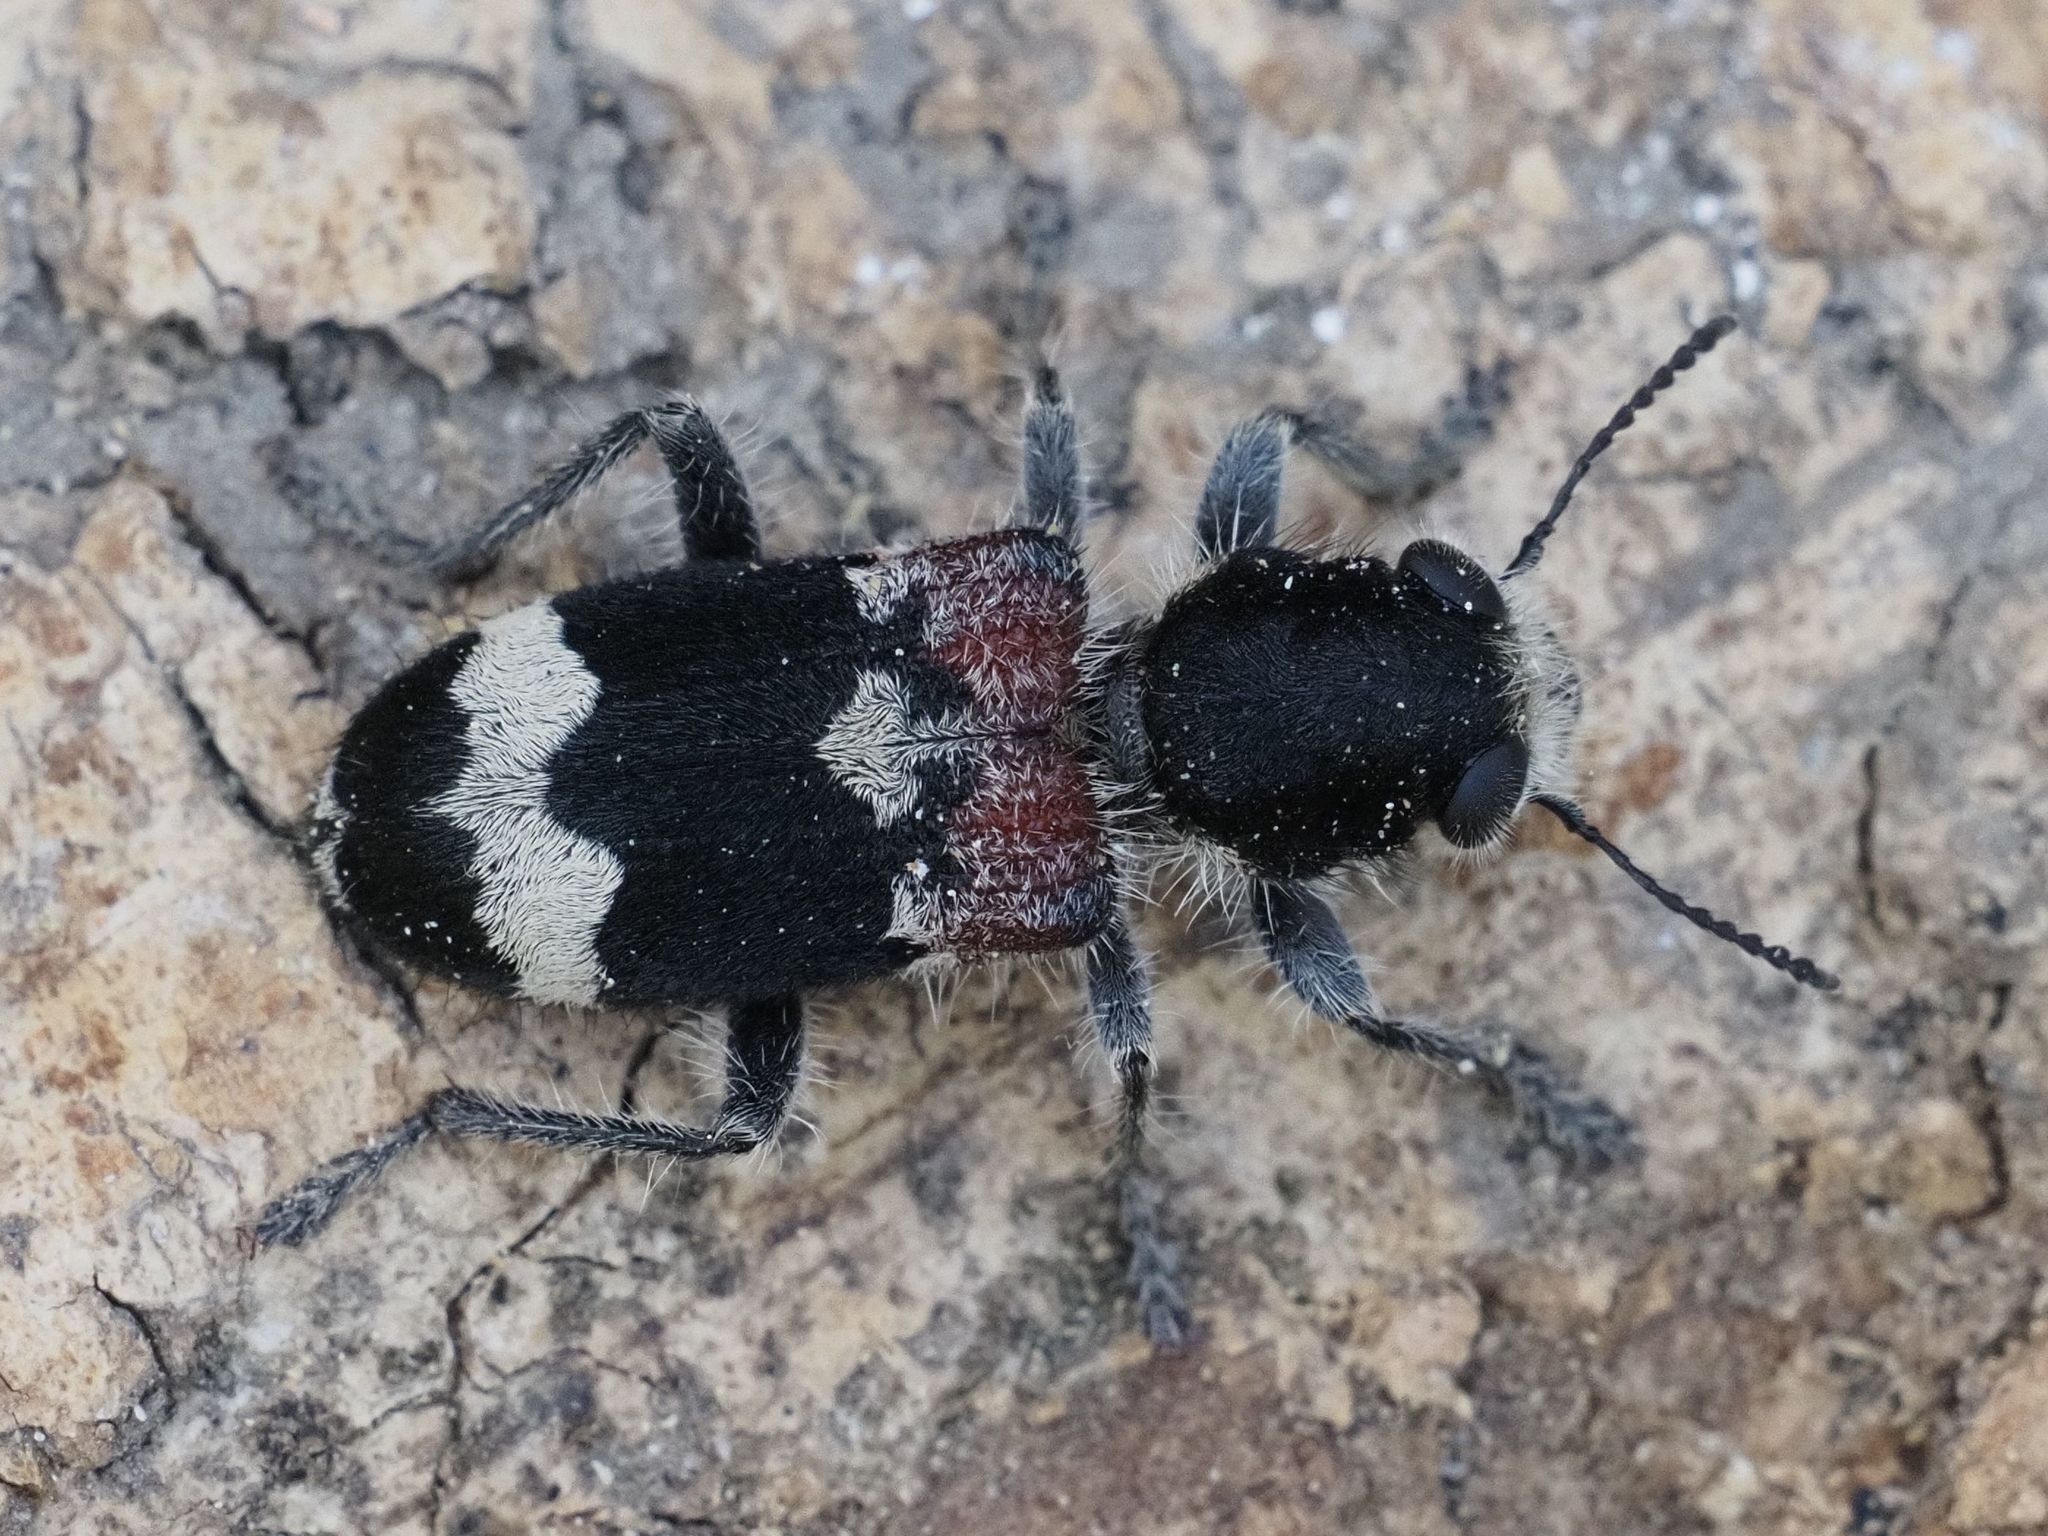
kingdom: Animalia
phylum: Arthropoda
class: Insecta
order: Coleoptera
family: Cleridae
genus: Clerus
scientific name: Clerus mutillarius
